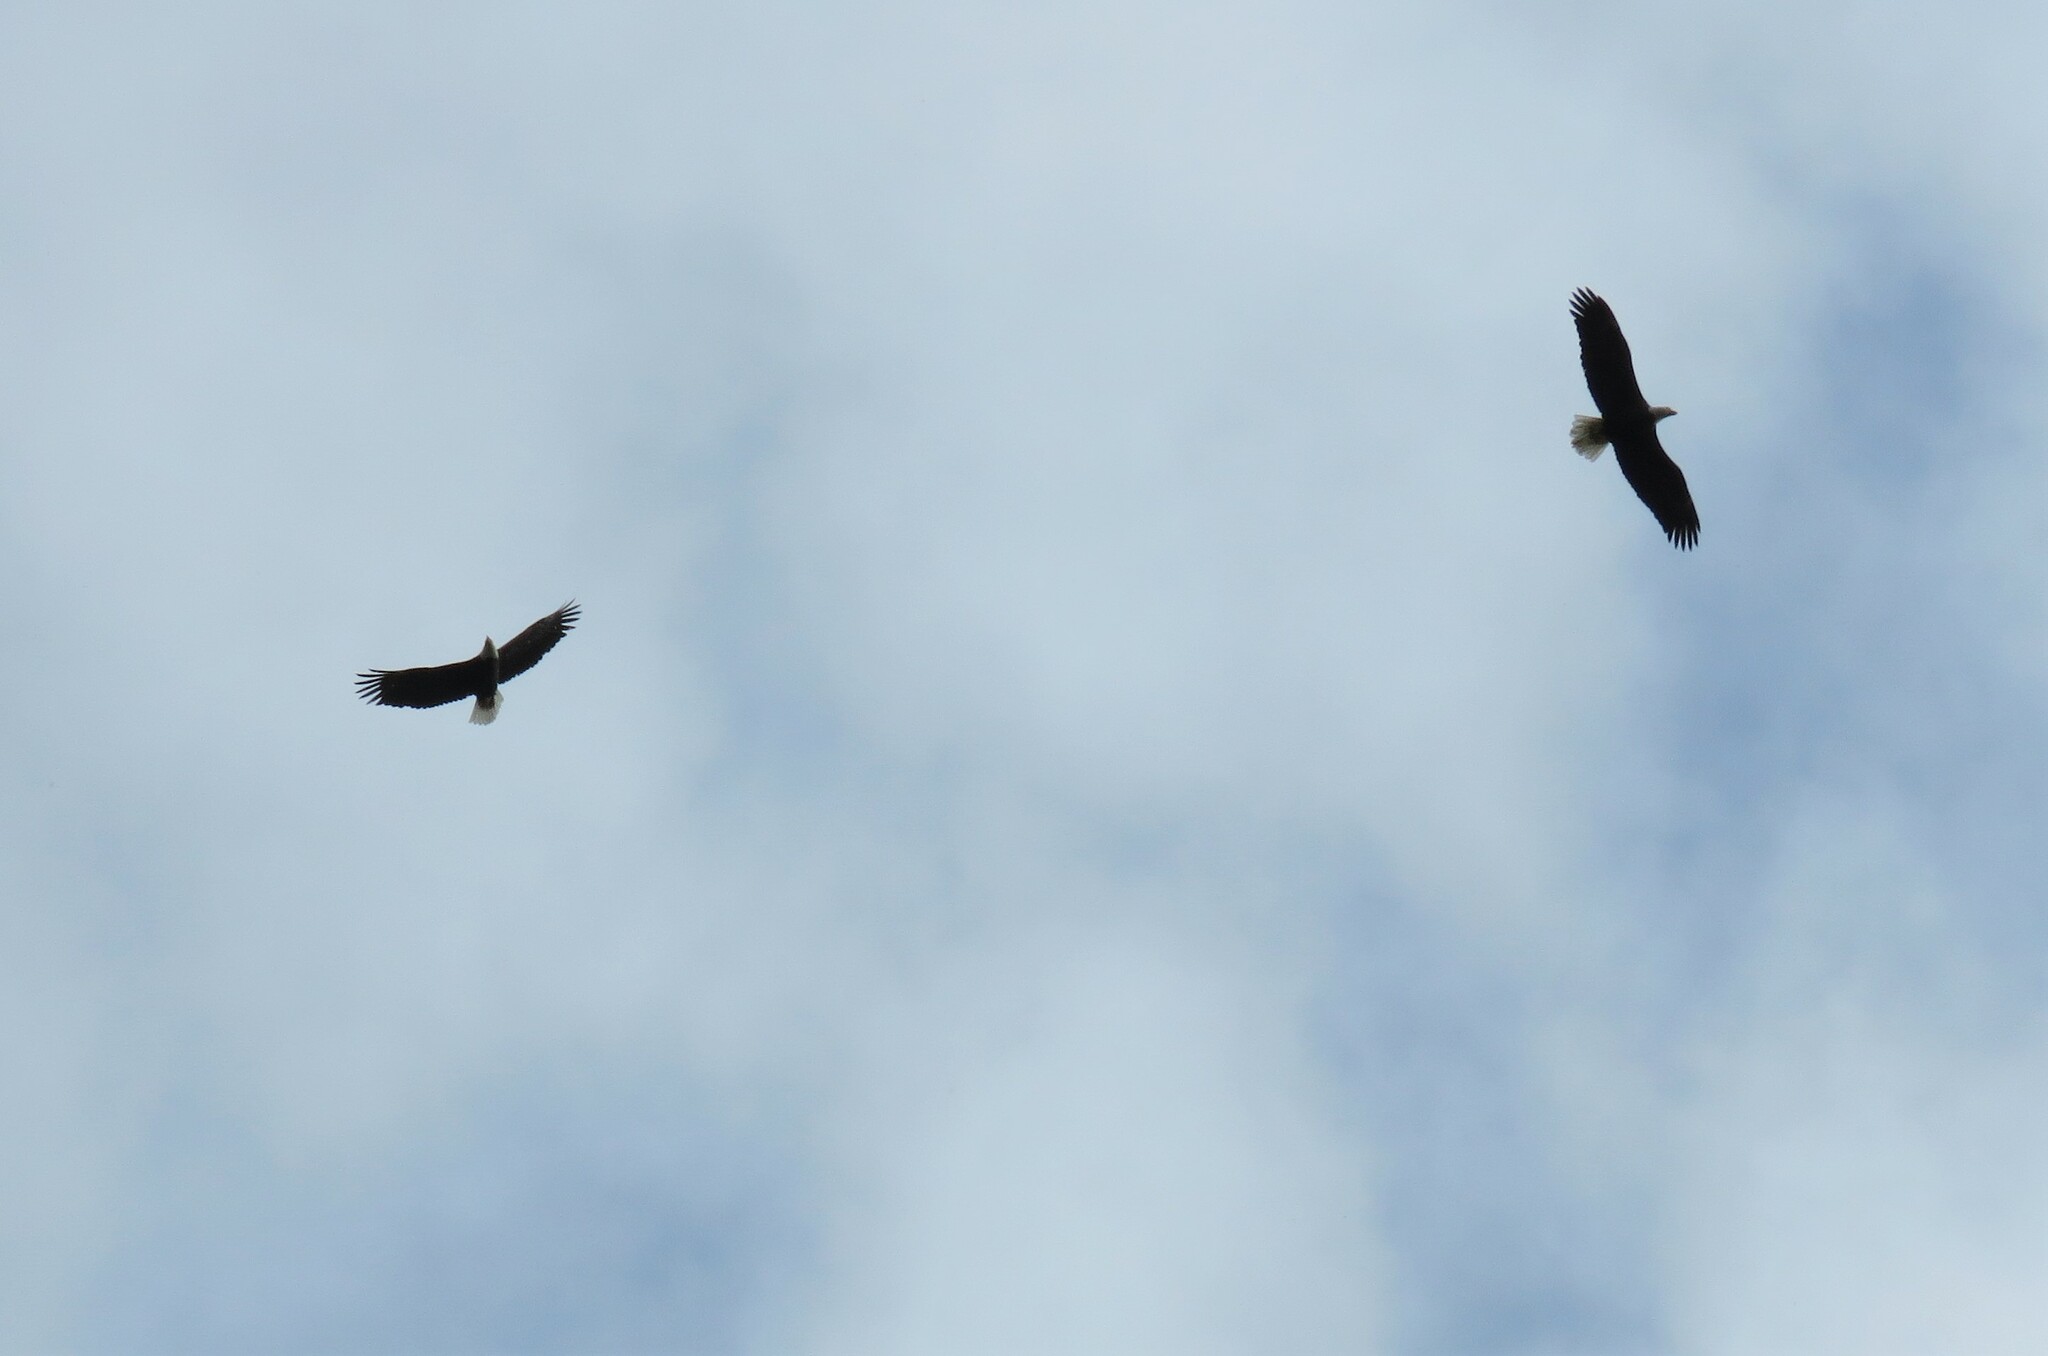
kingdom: Animalia
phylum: Chordata
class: Aves
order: Accipitriformes
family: Accipitridae
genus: Haliaeetus
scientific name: Haliaeetus leucocephalus
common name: Bald eagle
